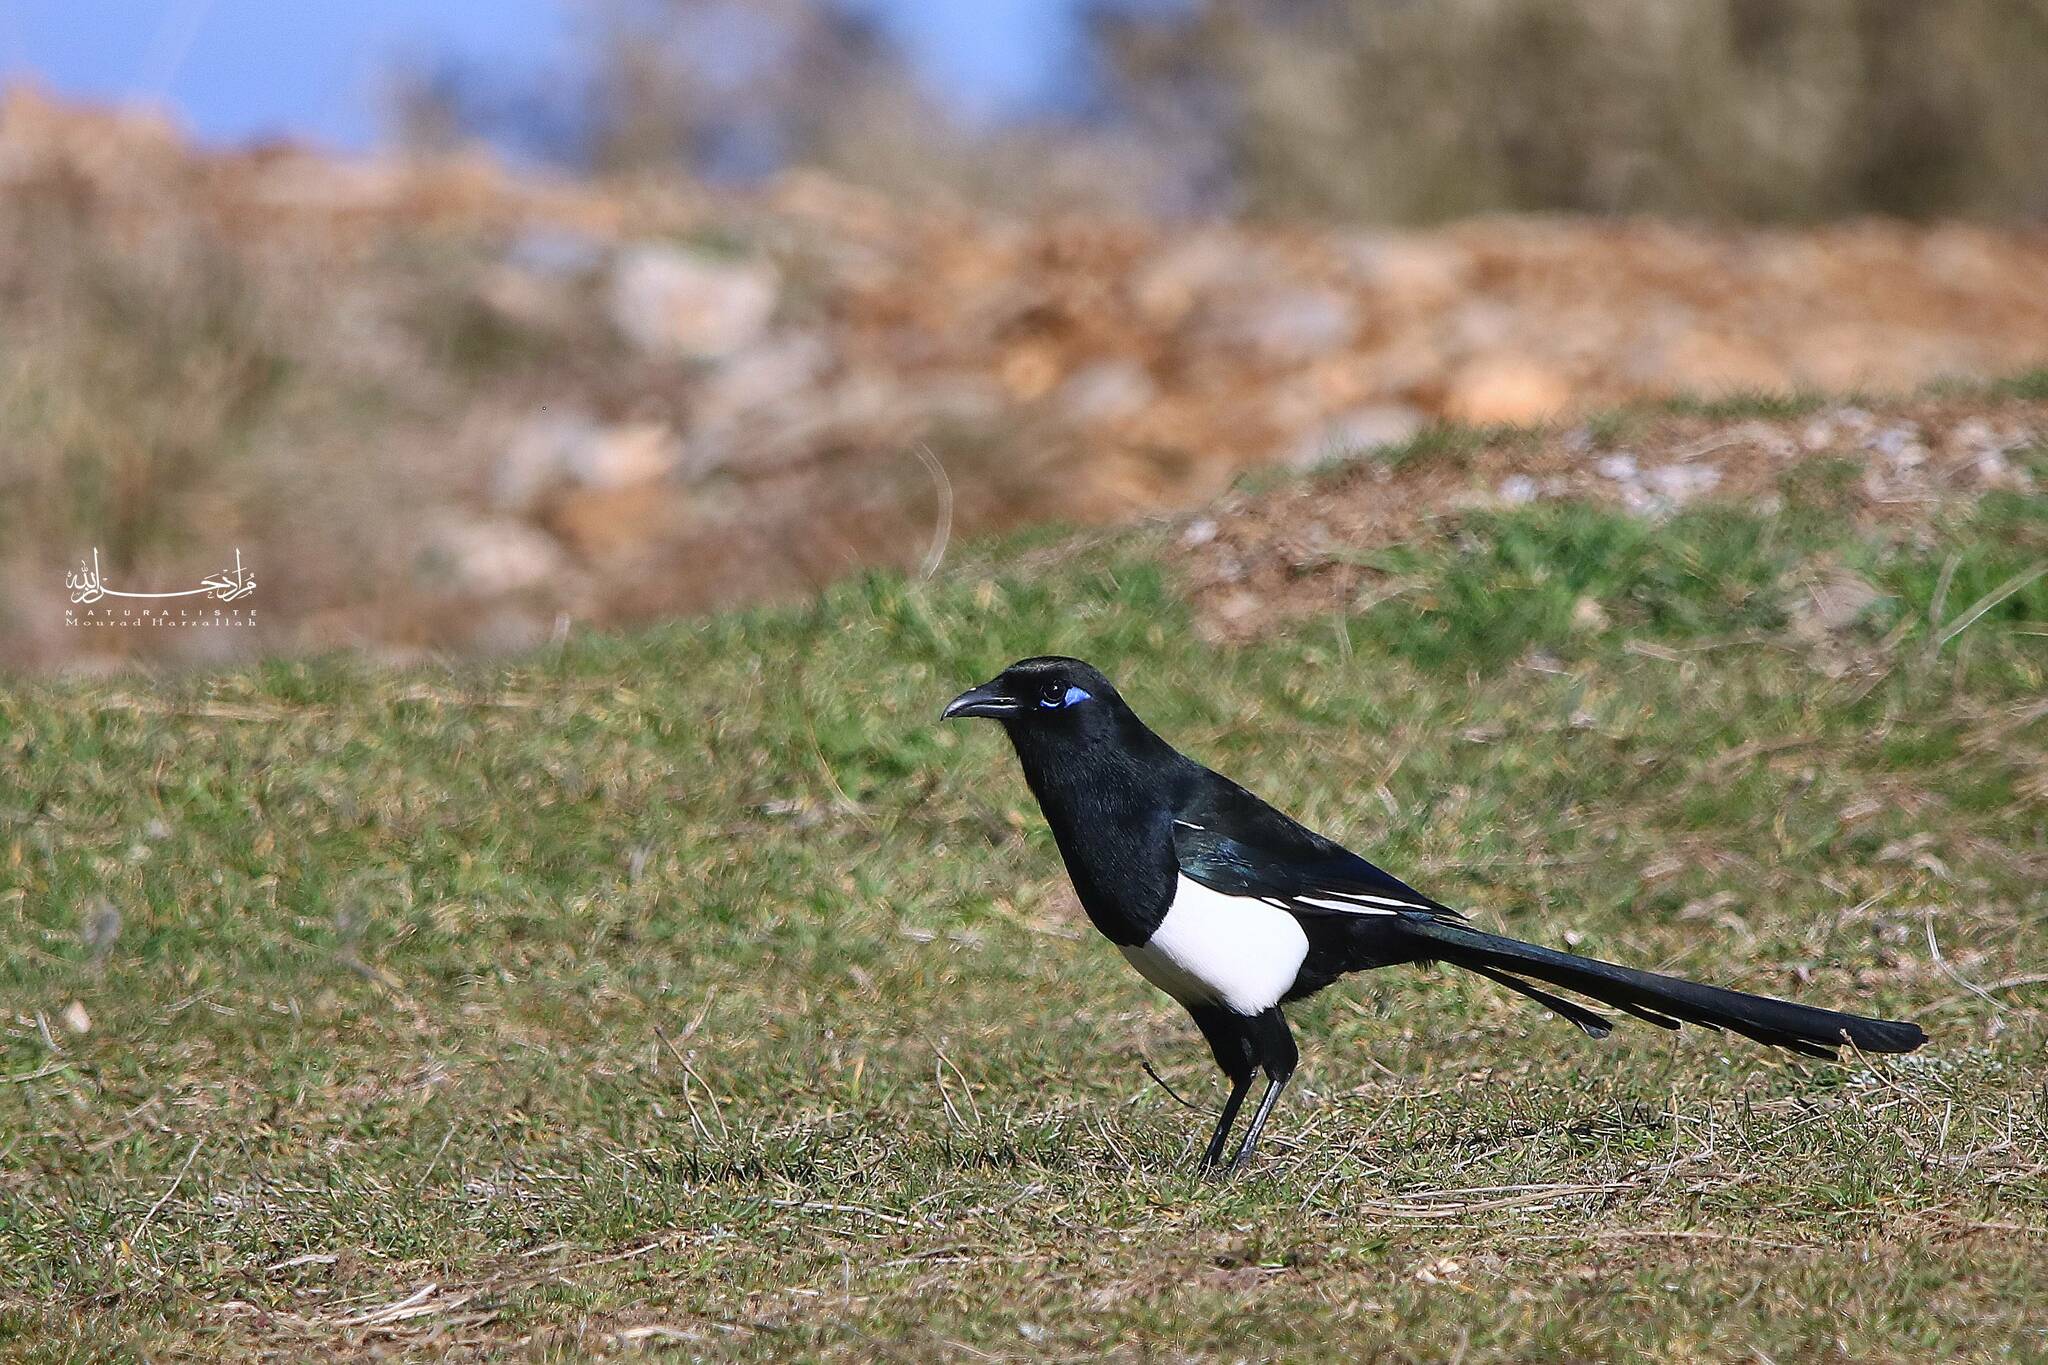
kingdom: Animalia
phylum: Chordata
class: Aves
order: Passeriformes
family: Corvidae
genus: Pica
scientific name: Pica mauritanica
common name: Maghreb magpie
